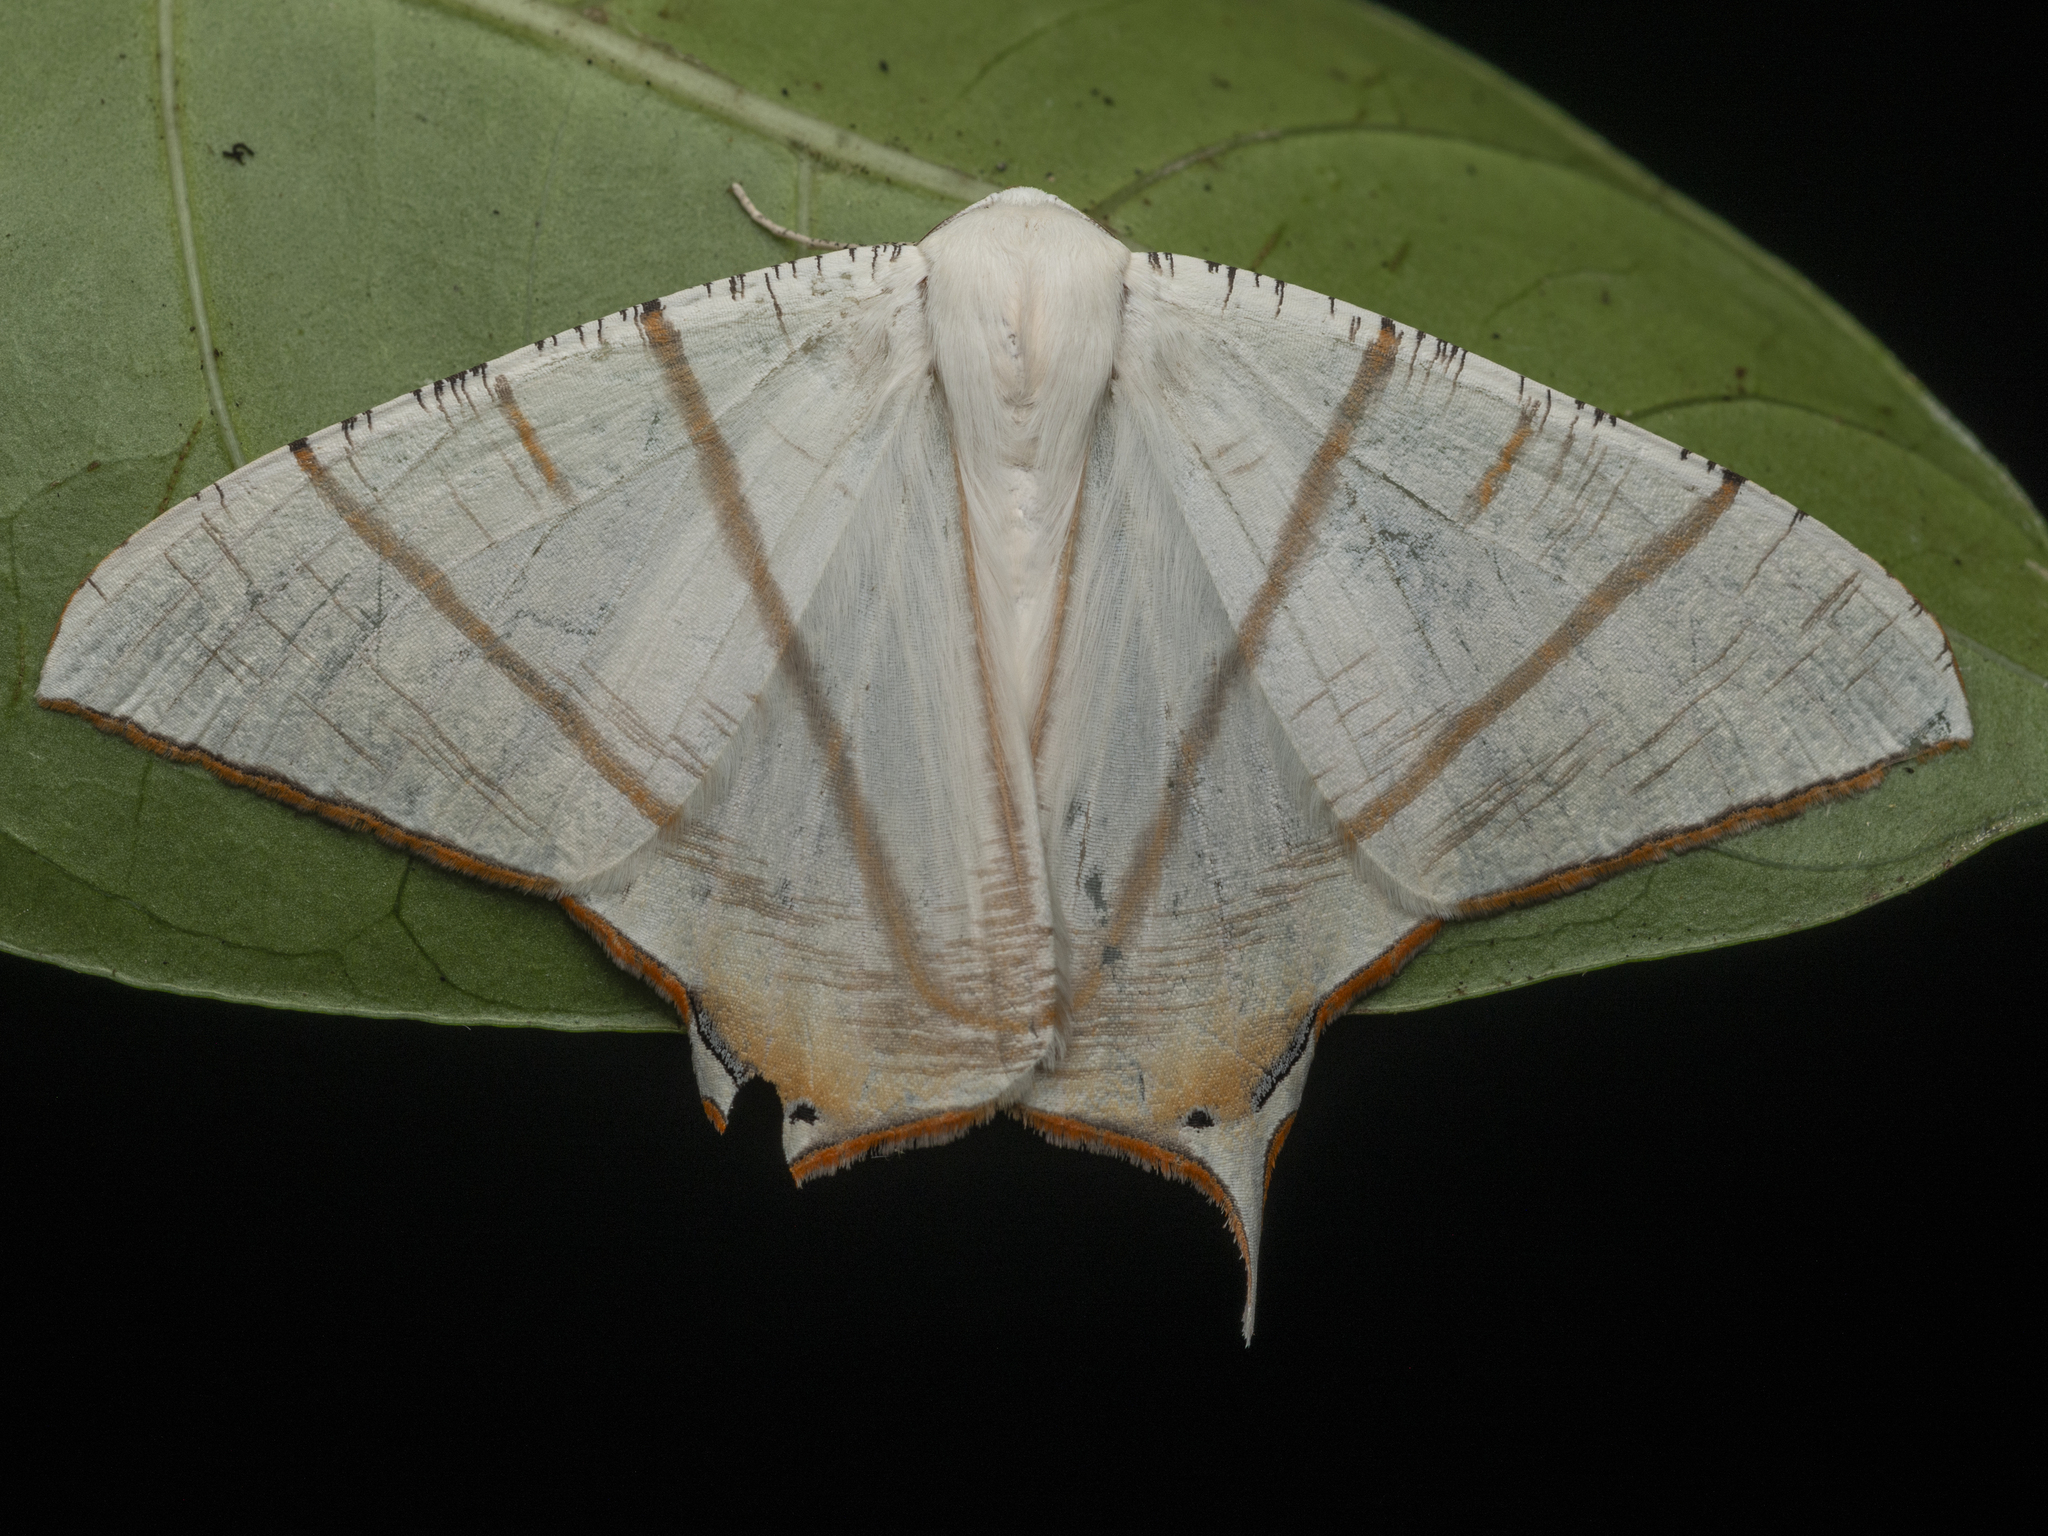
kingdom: Animalia
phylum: Arthropoda
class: Insecta
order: Lepidoptera
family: Geometridae
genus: Ourapteryx
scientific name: Ourapteryx clara
